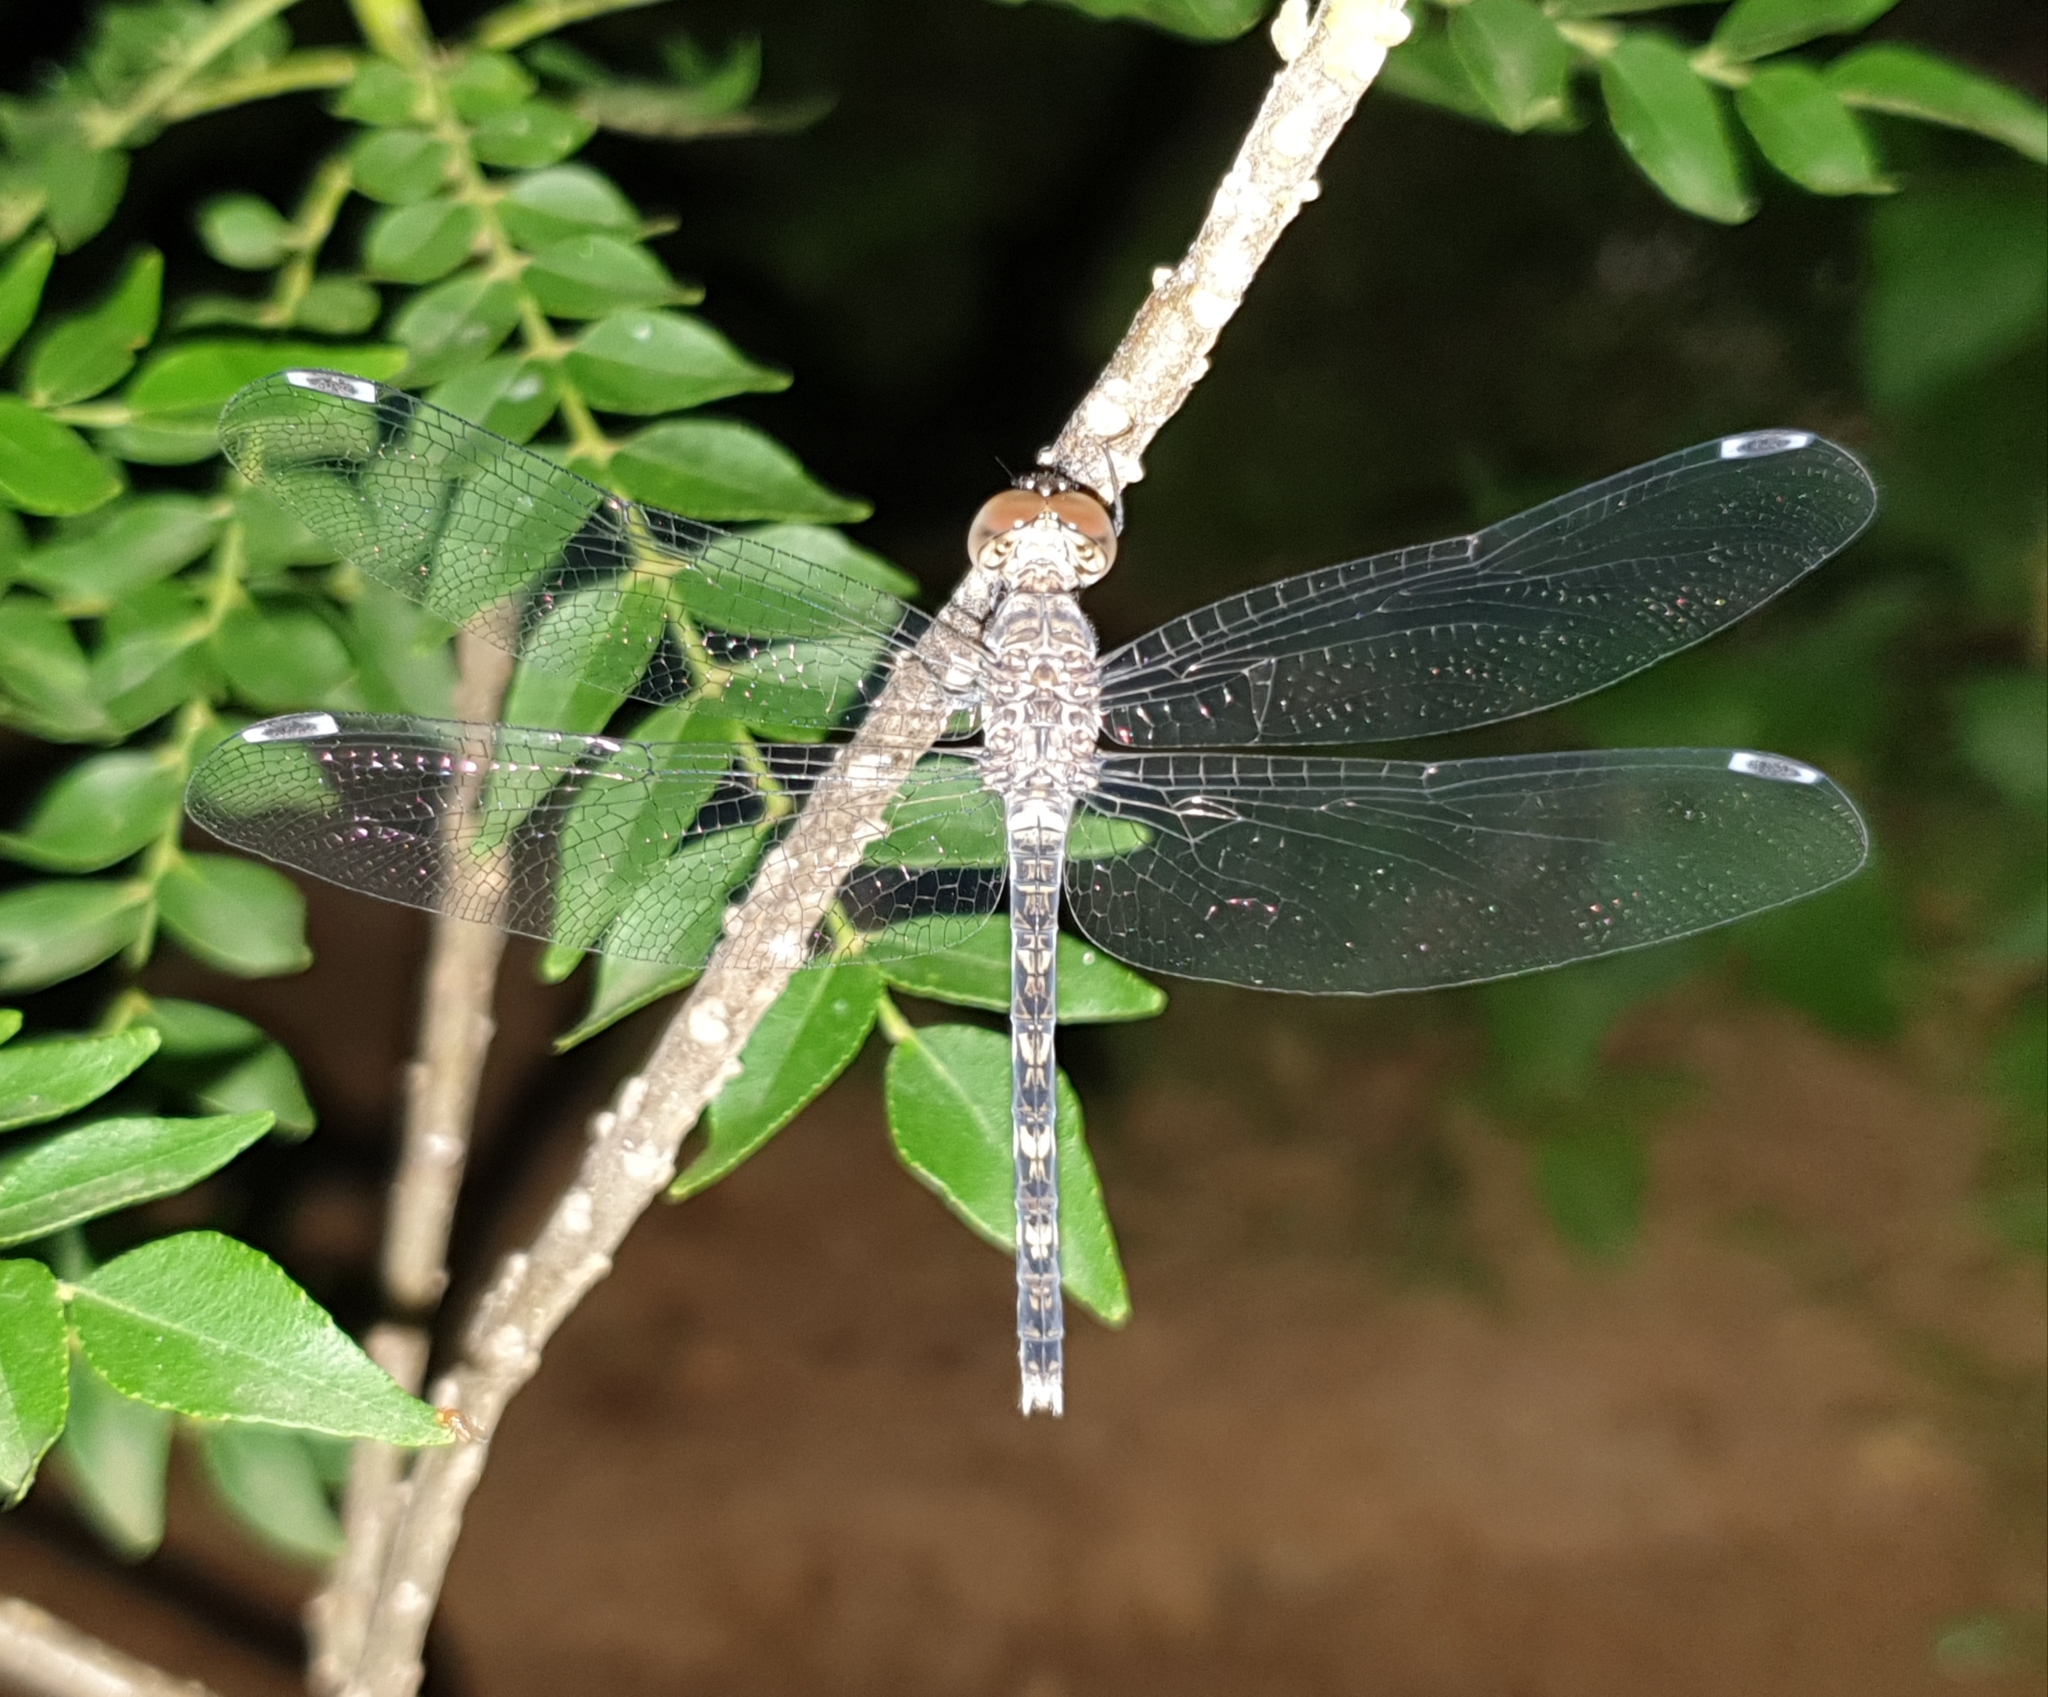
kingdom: Animalia
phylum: Arthropoda
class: Insecta
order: Odonata
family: Libellulidae
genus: Bradinopyga
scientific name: Bradinopyga geminata
